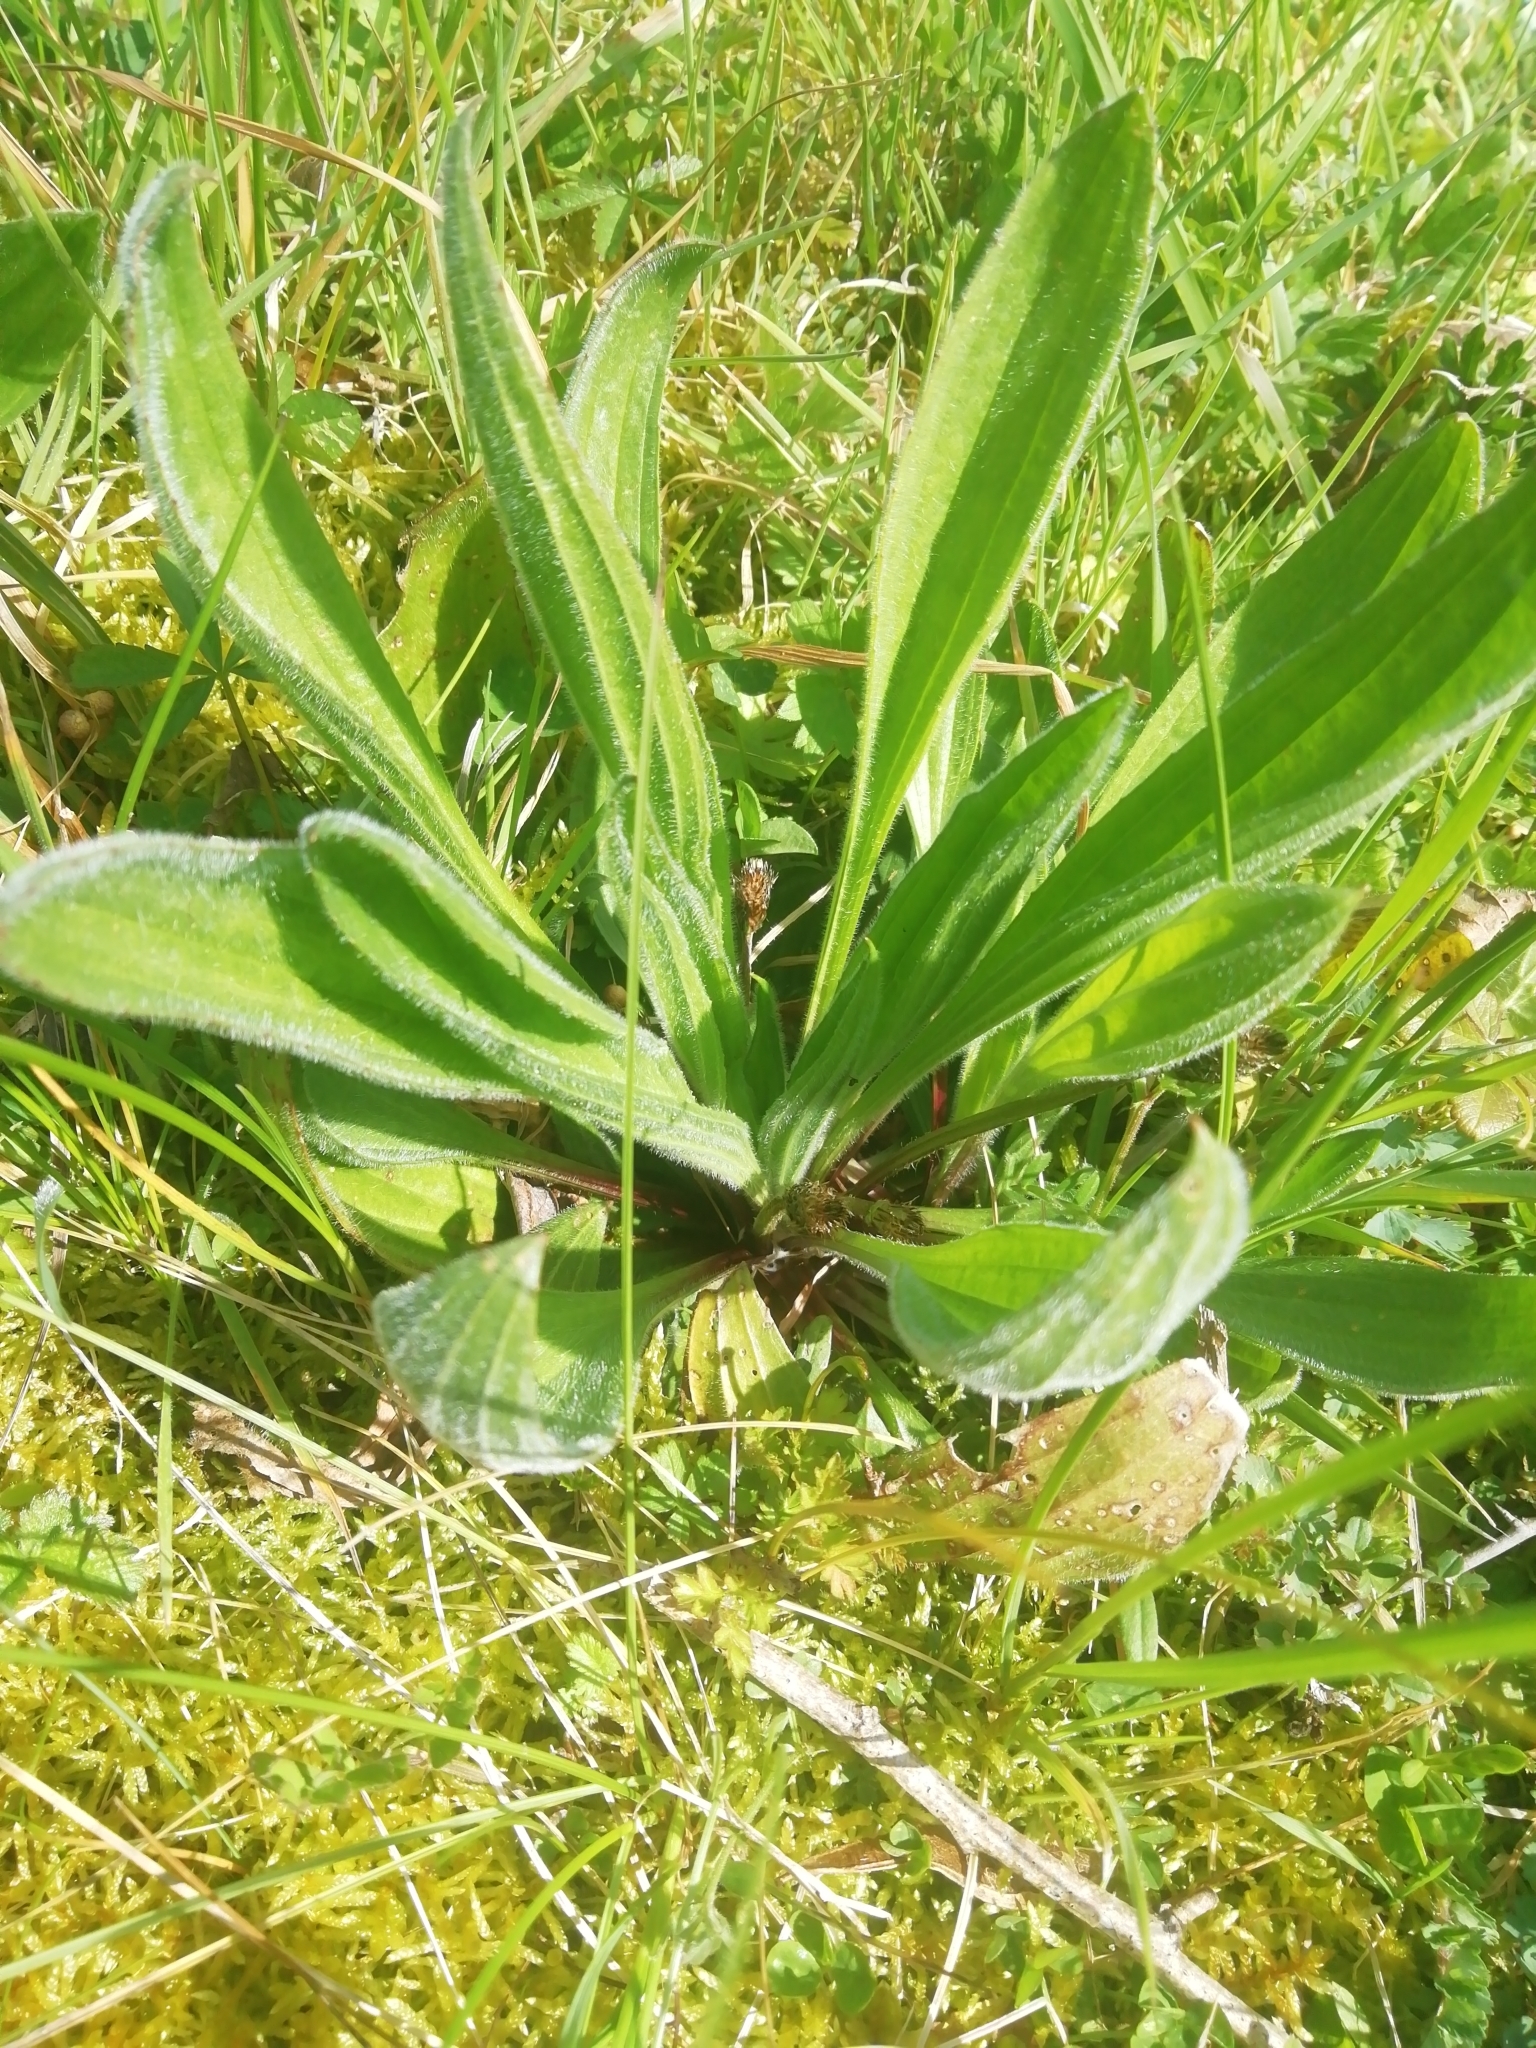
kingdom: Plantae
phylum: Tracheophyta
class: Magnoliopsida
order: Lamiales
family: Plantaginaceae
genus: Plantago
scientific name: Plantago lanceolata
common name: Ribwort plantain
